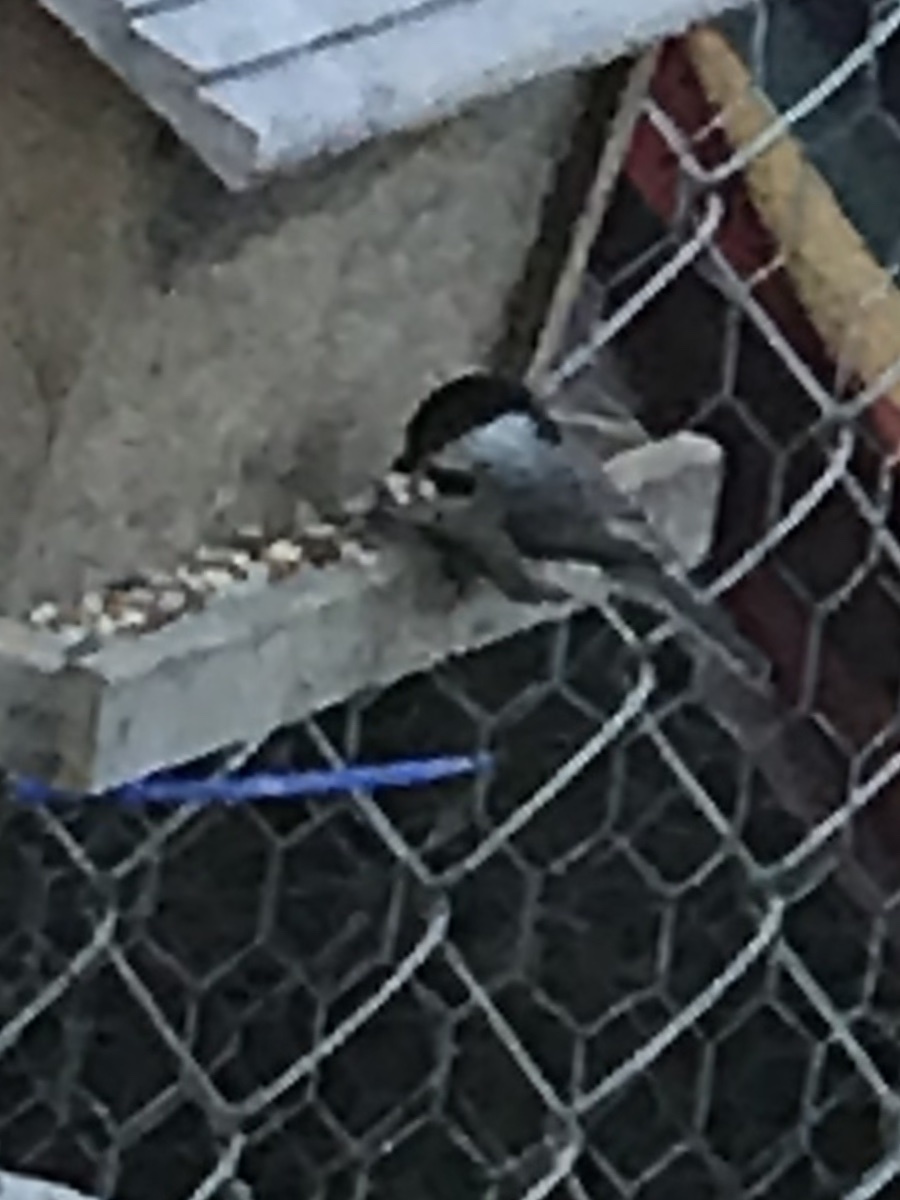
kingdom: Animalia
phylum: Chordata
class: Aves
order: Passeriformes
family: Paridae
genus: Poecile
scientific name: Poecile carolinensis
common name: Carolina chickadee
